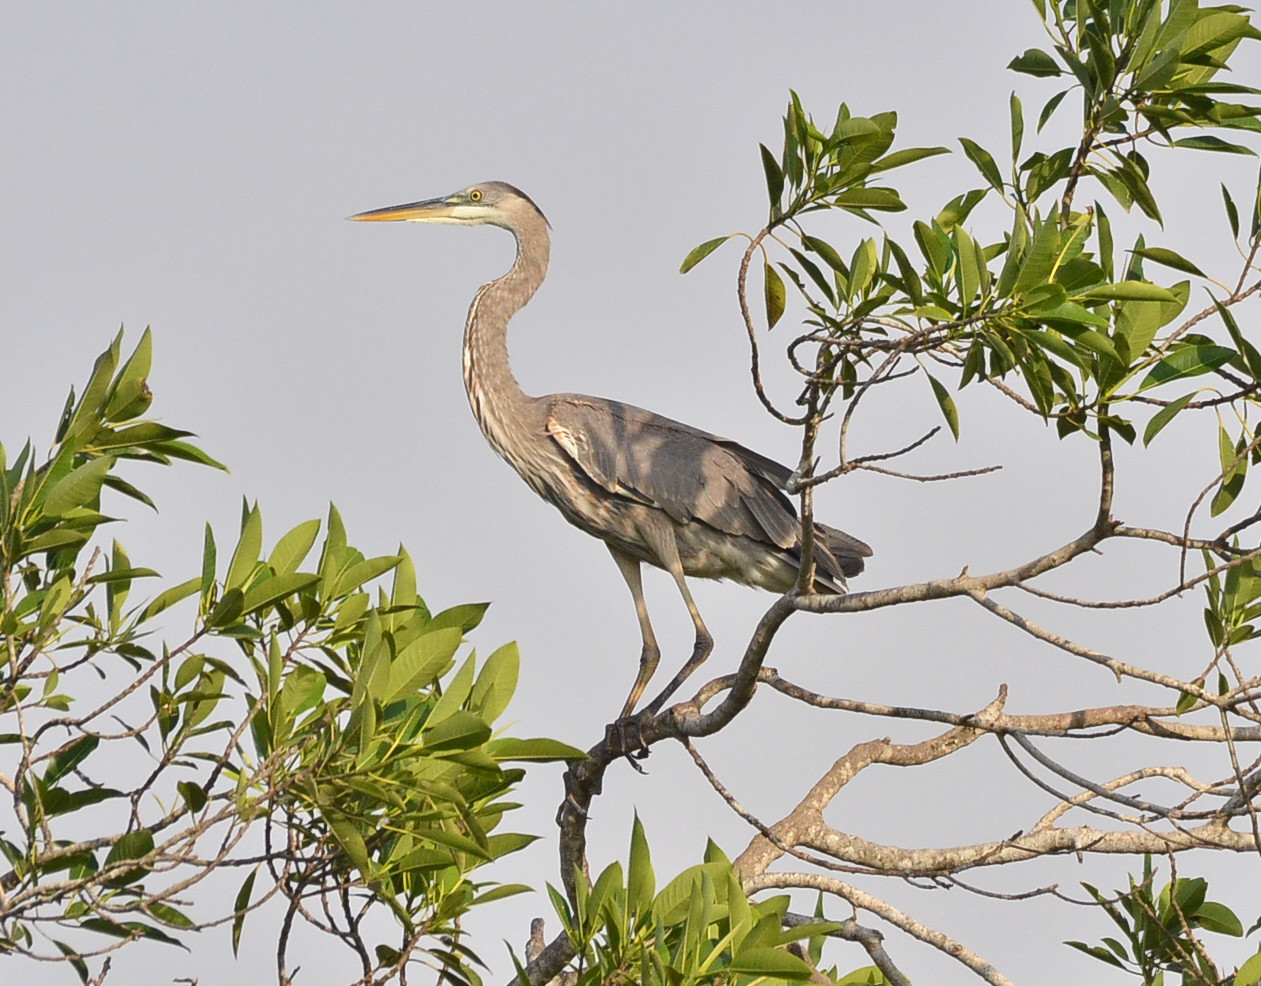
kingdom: Animalia
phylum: Chordata
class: Aves
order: Pelecaniformes
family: Ardeidae
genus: Ardea
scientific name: Ardea herodias
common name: Great blue heron
